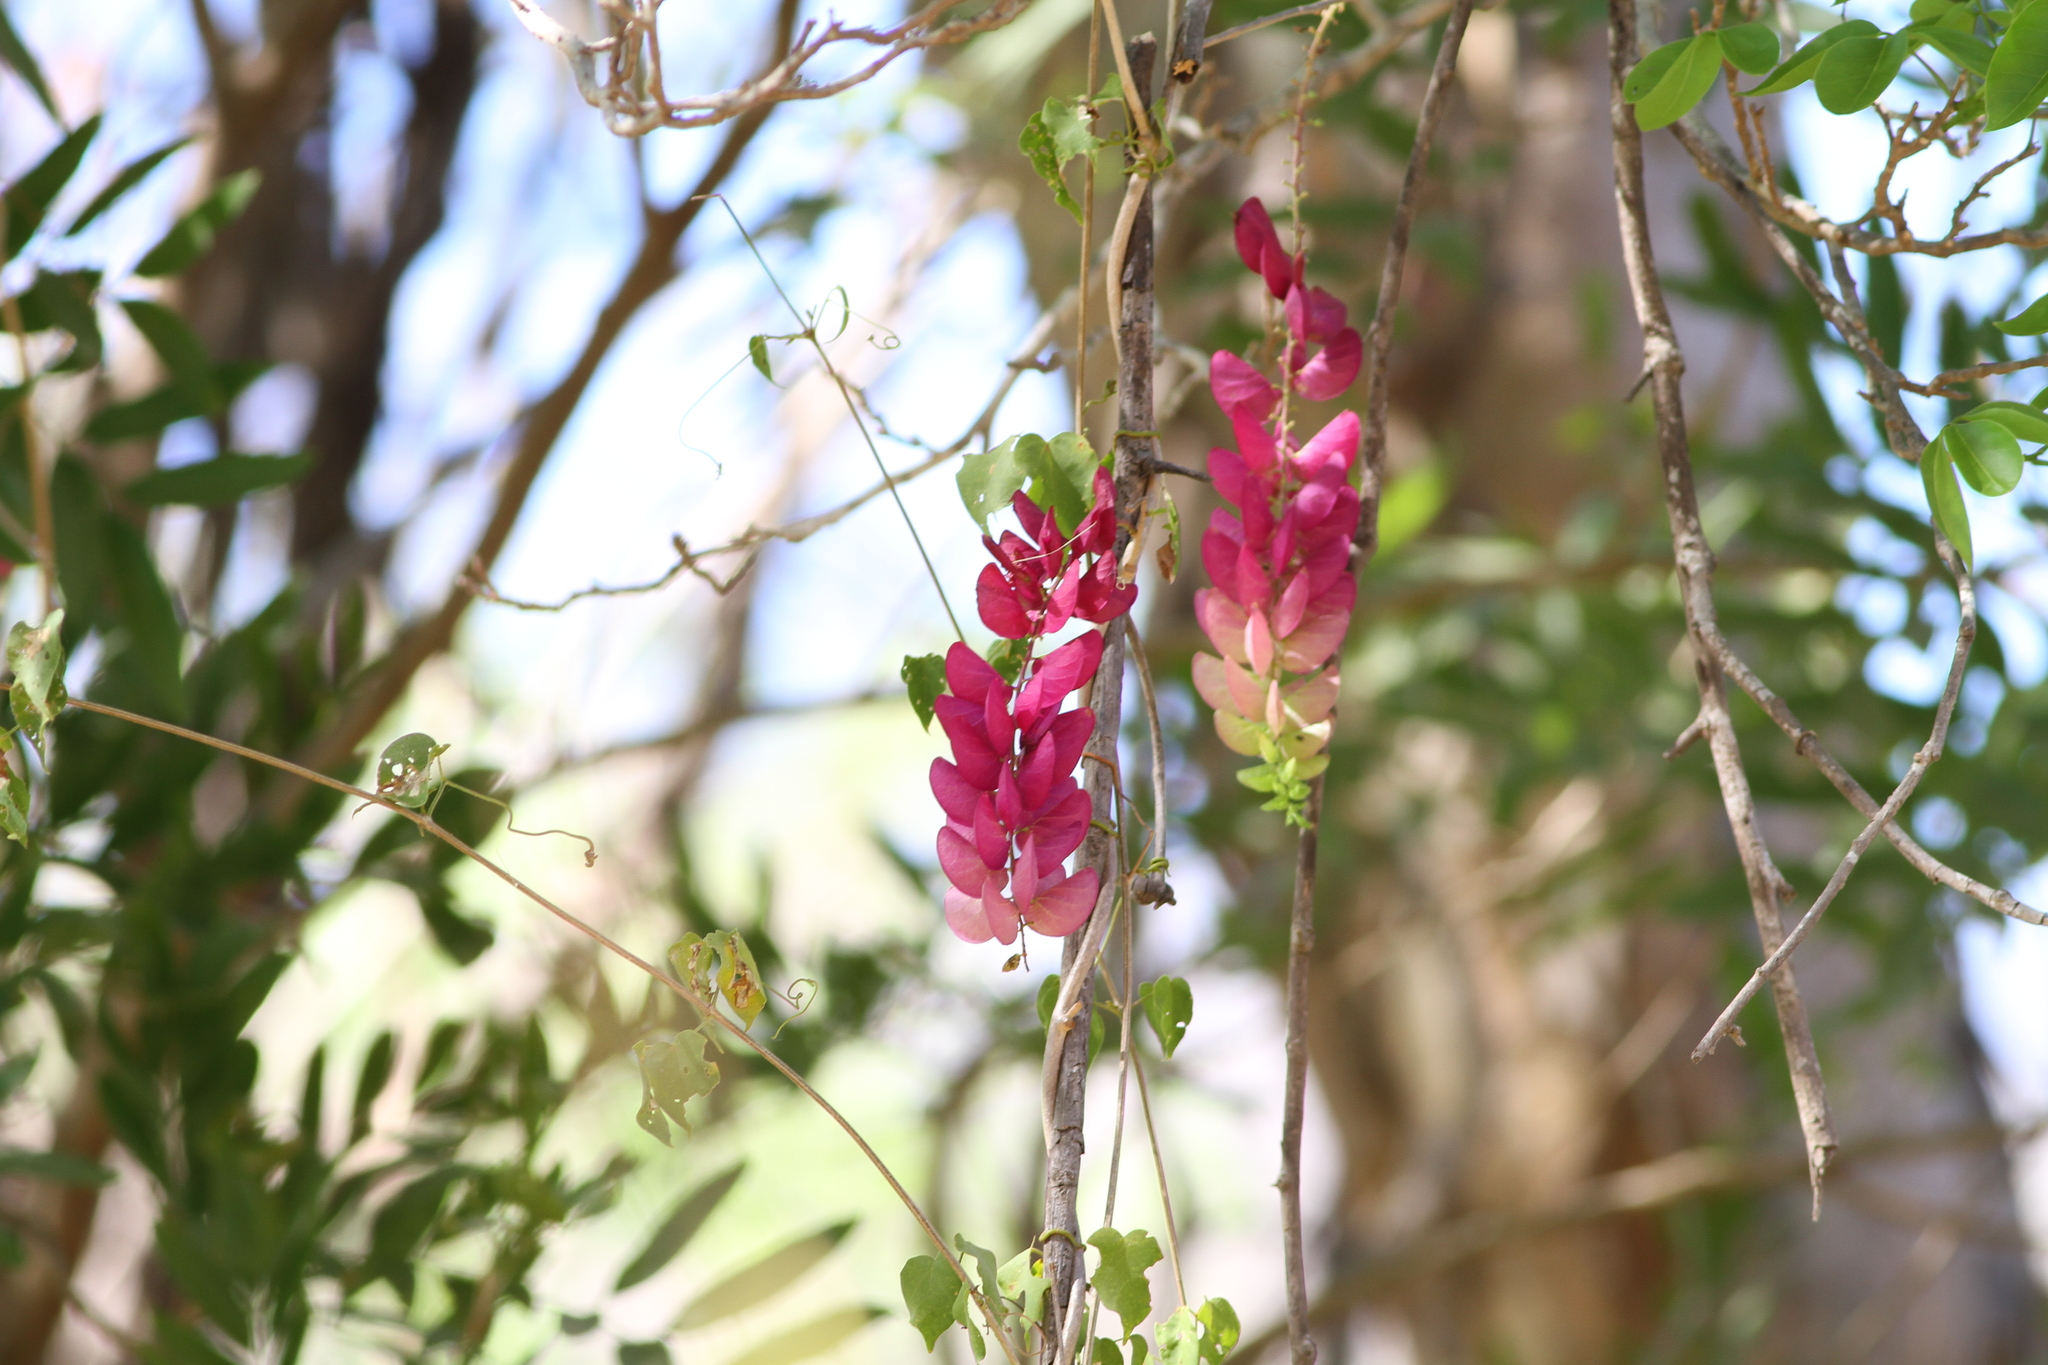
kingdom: Plantae
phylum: Tracheophyta
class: Magnoliopsida
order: Solanales
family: Convolvulaceae
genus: Ipomoea
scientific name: Ipomoea bracteata
